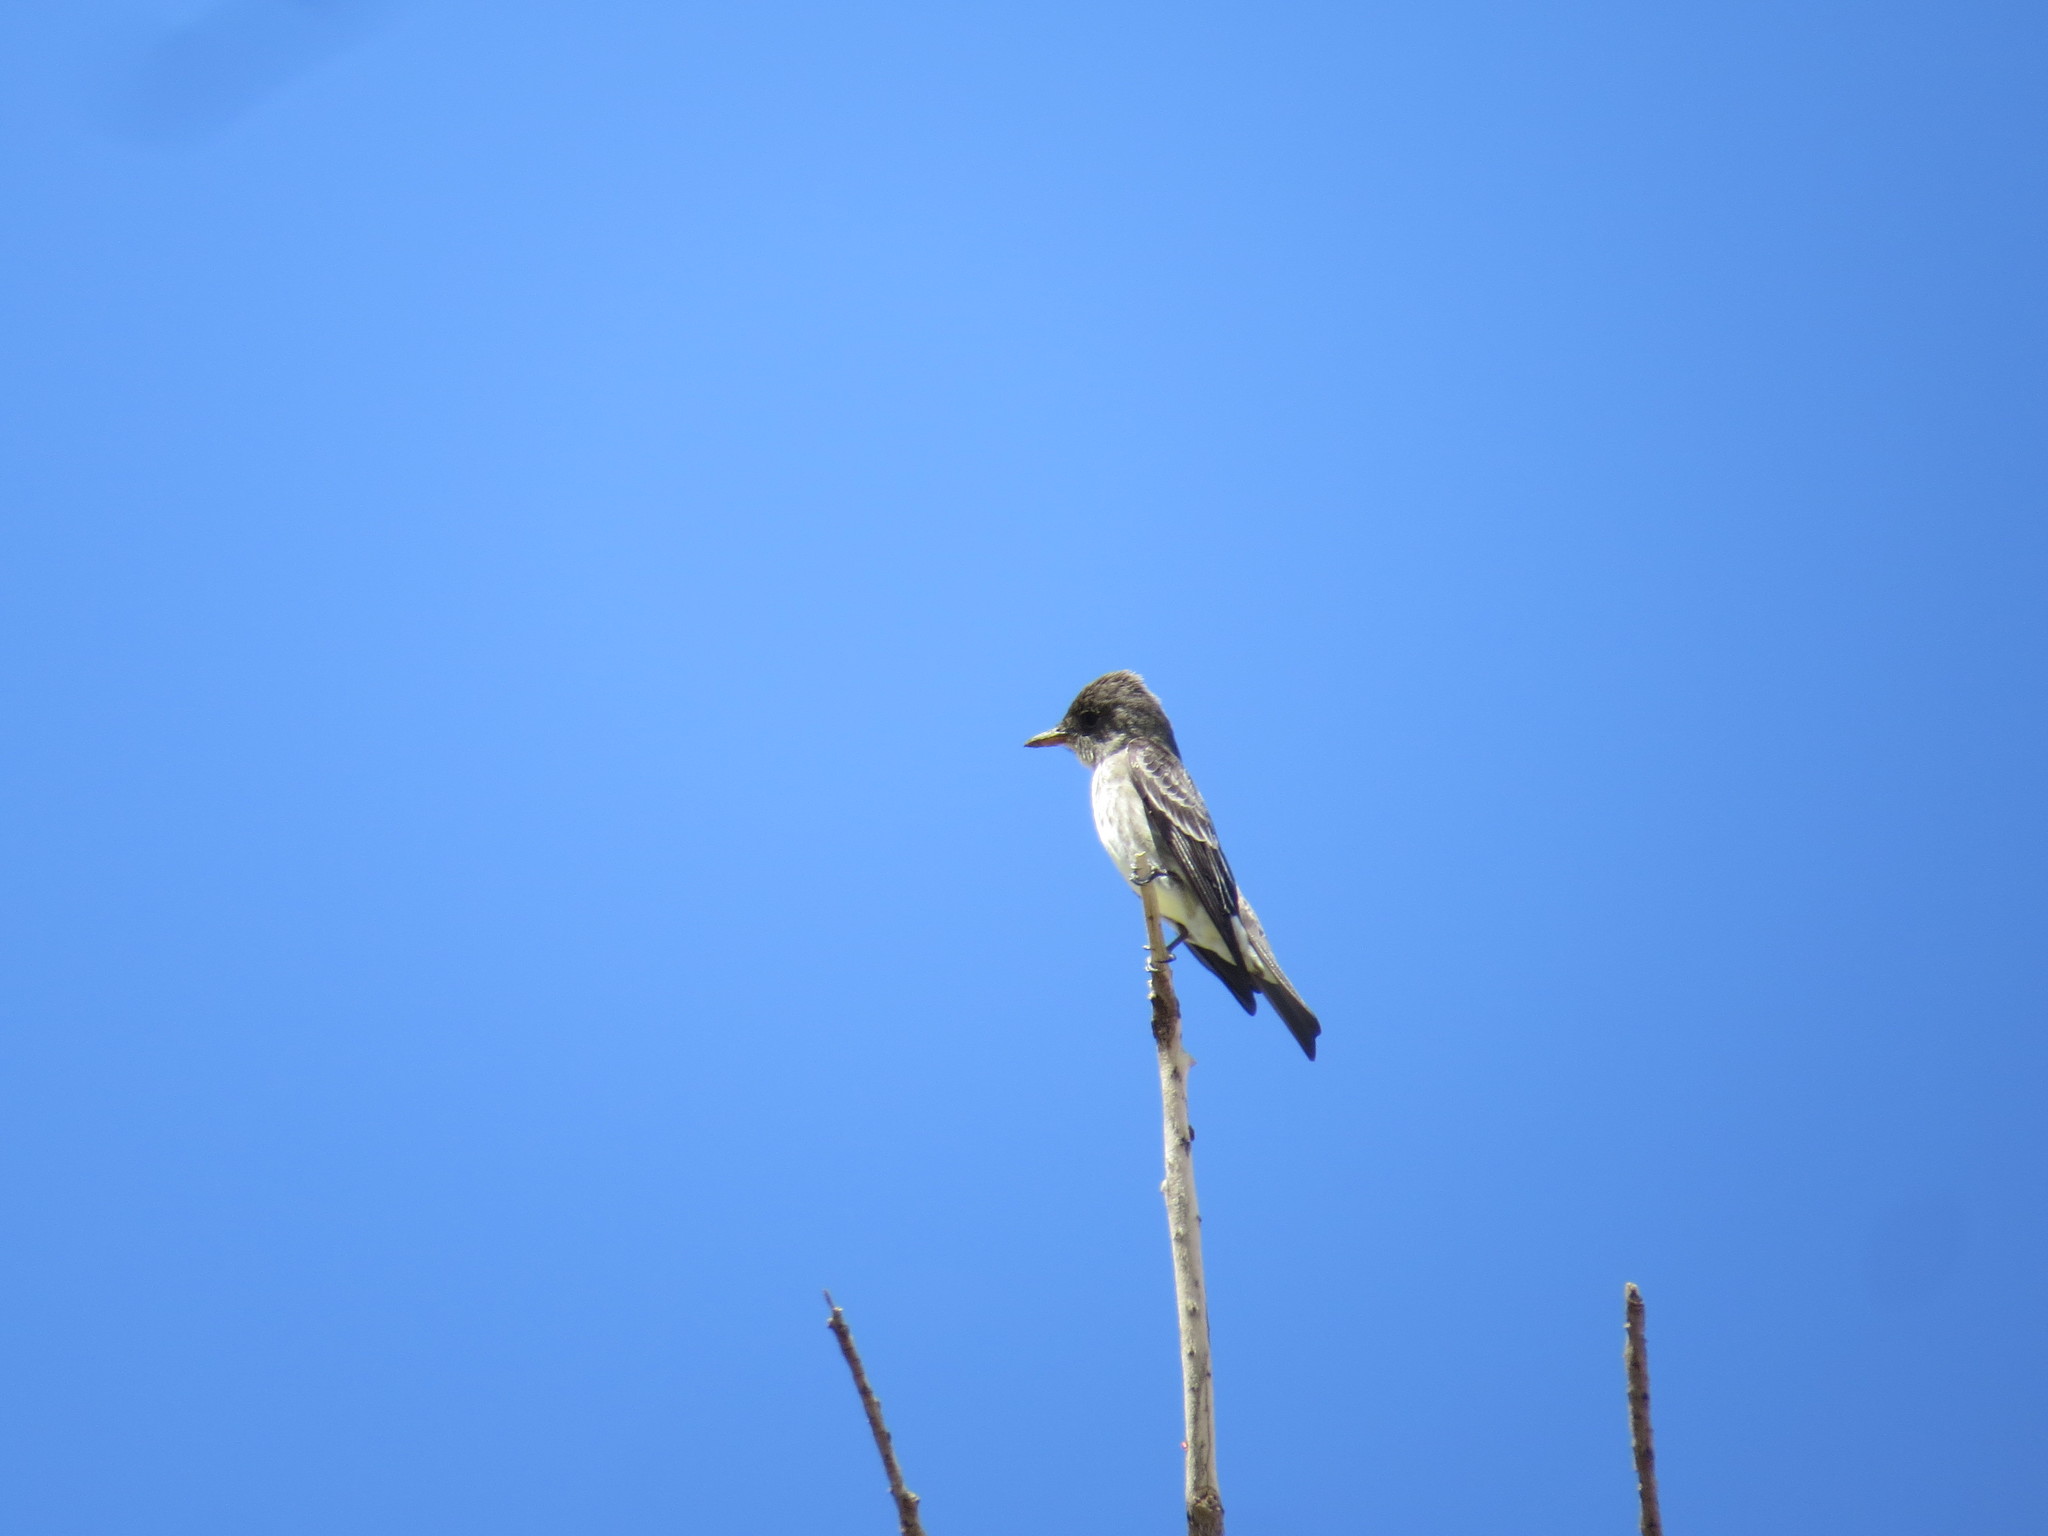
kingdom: Animalia
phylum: Chordata
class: Aves
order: Passeriformes
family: Tyrannidae
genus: Contopus
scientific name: Contopus cooperi
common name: Olive-sided flycatcher
